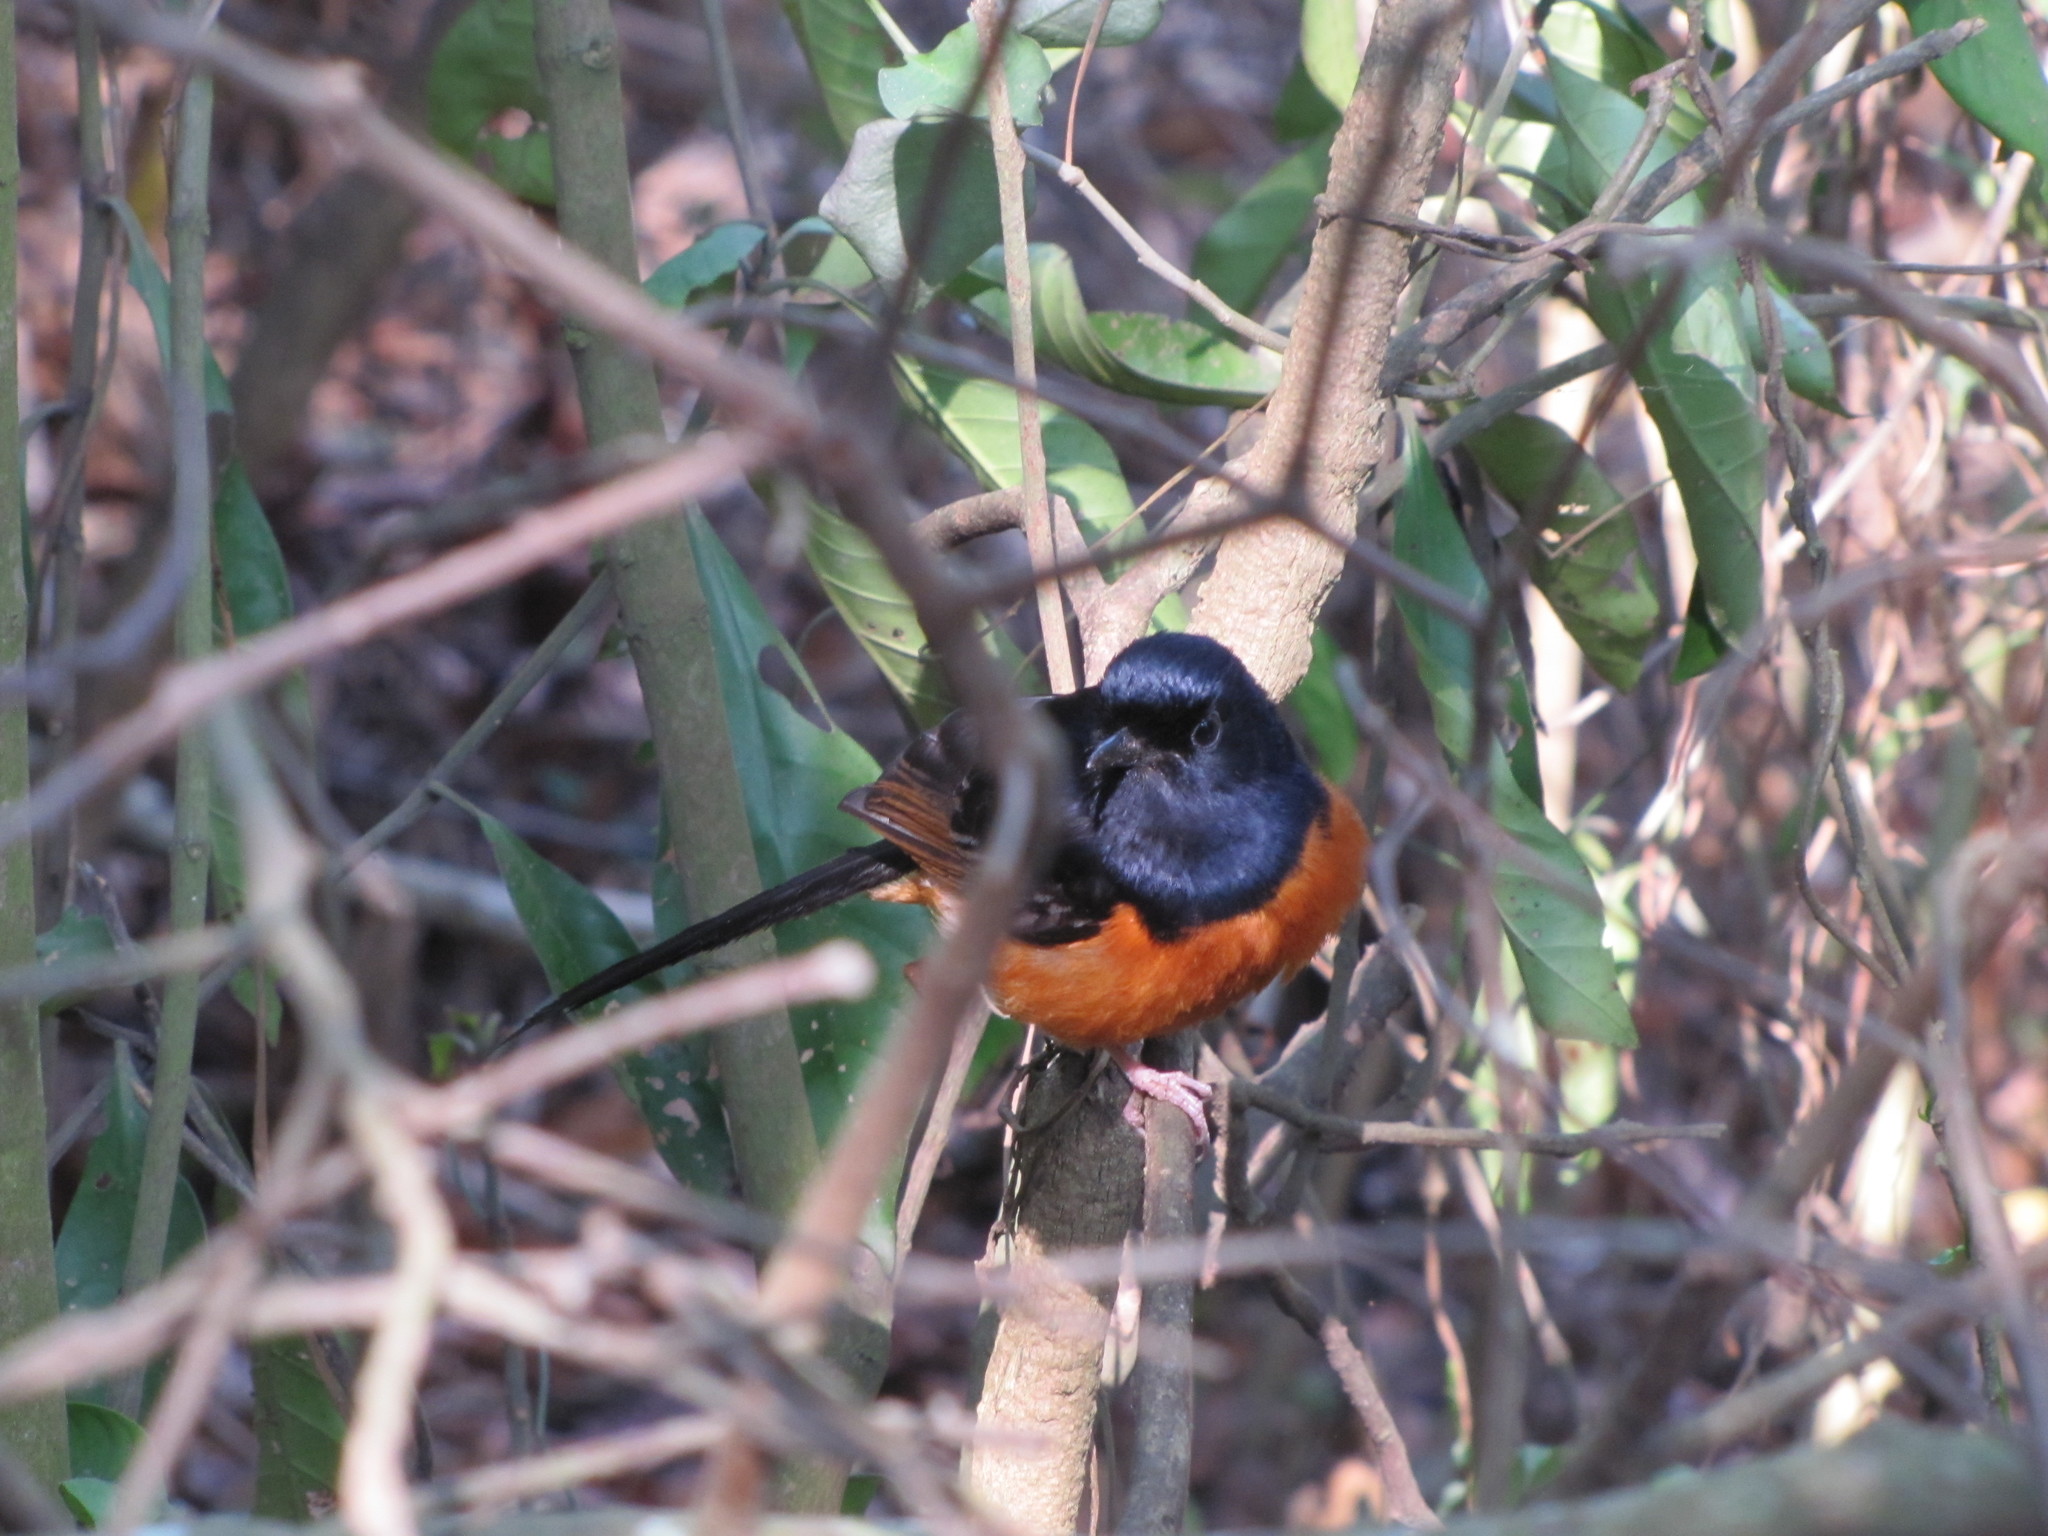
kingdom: Animalia
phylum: Chordata
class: Aves
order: Passeriformes
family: Muscicapidae
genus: Copsychus
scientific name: Copsychus malabaricus
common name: White-rumped shama
